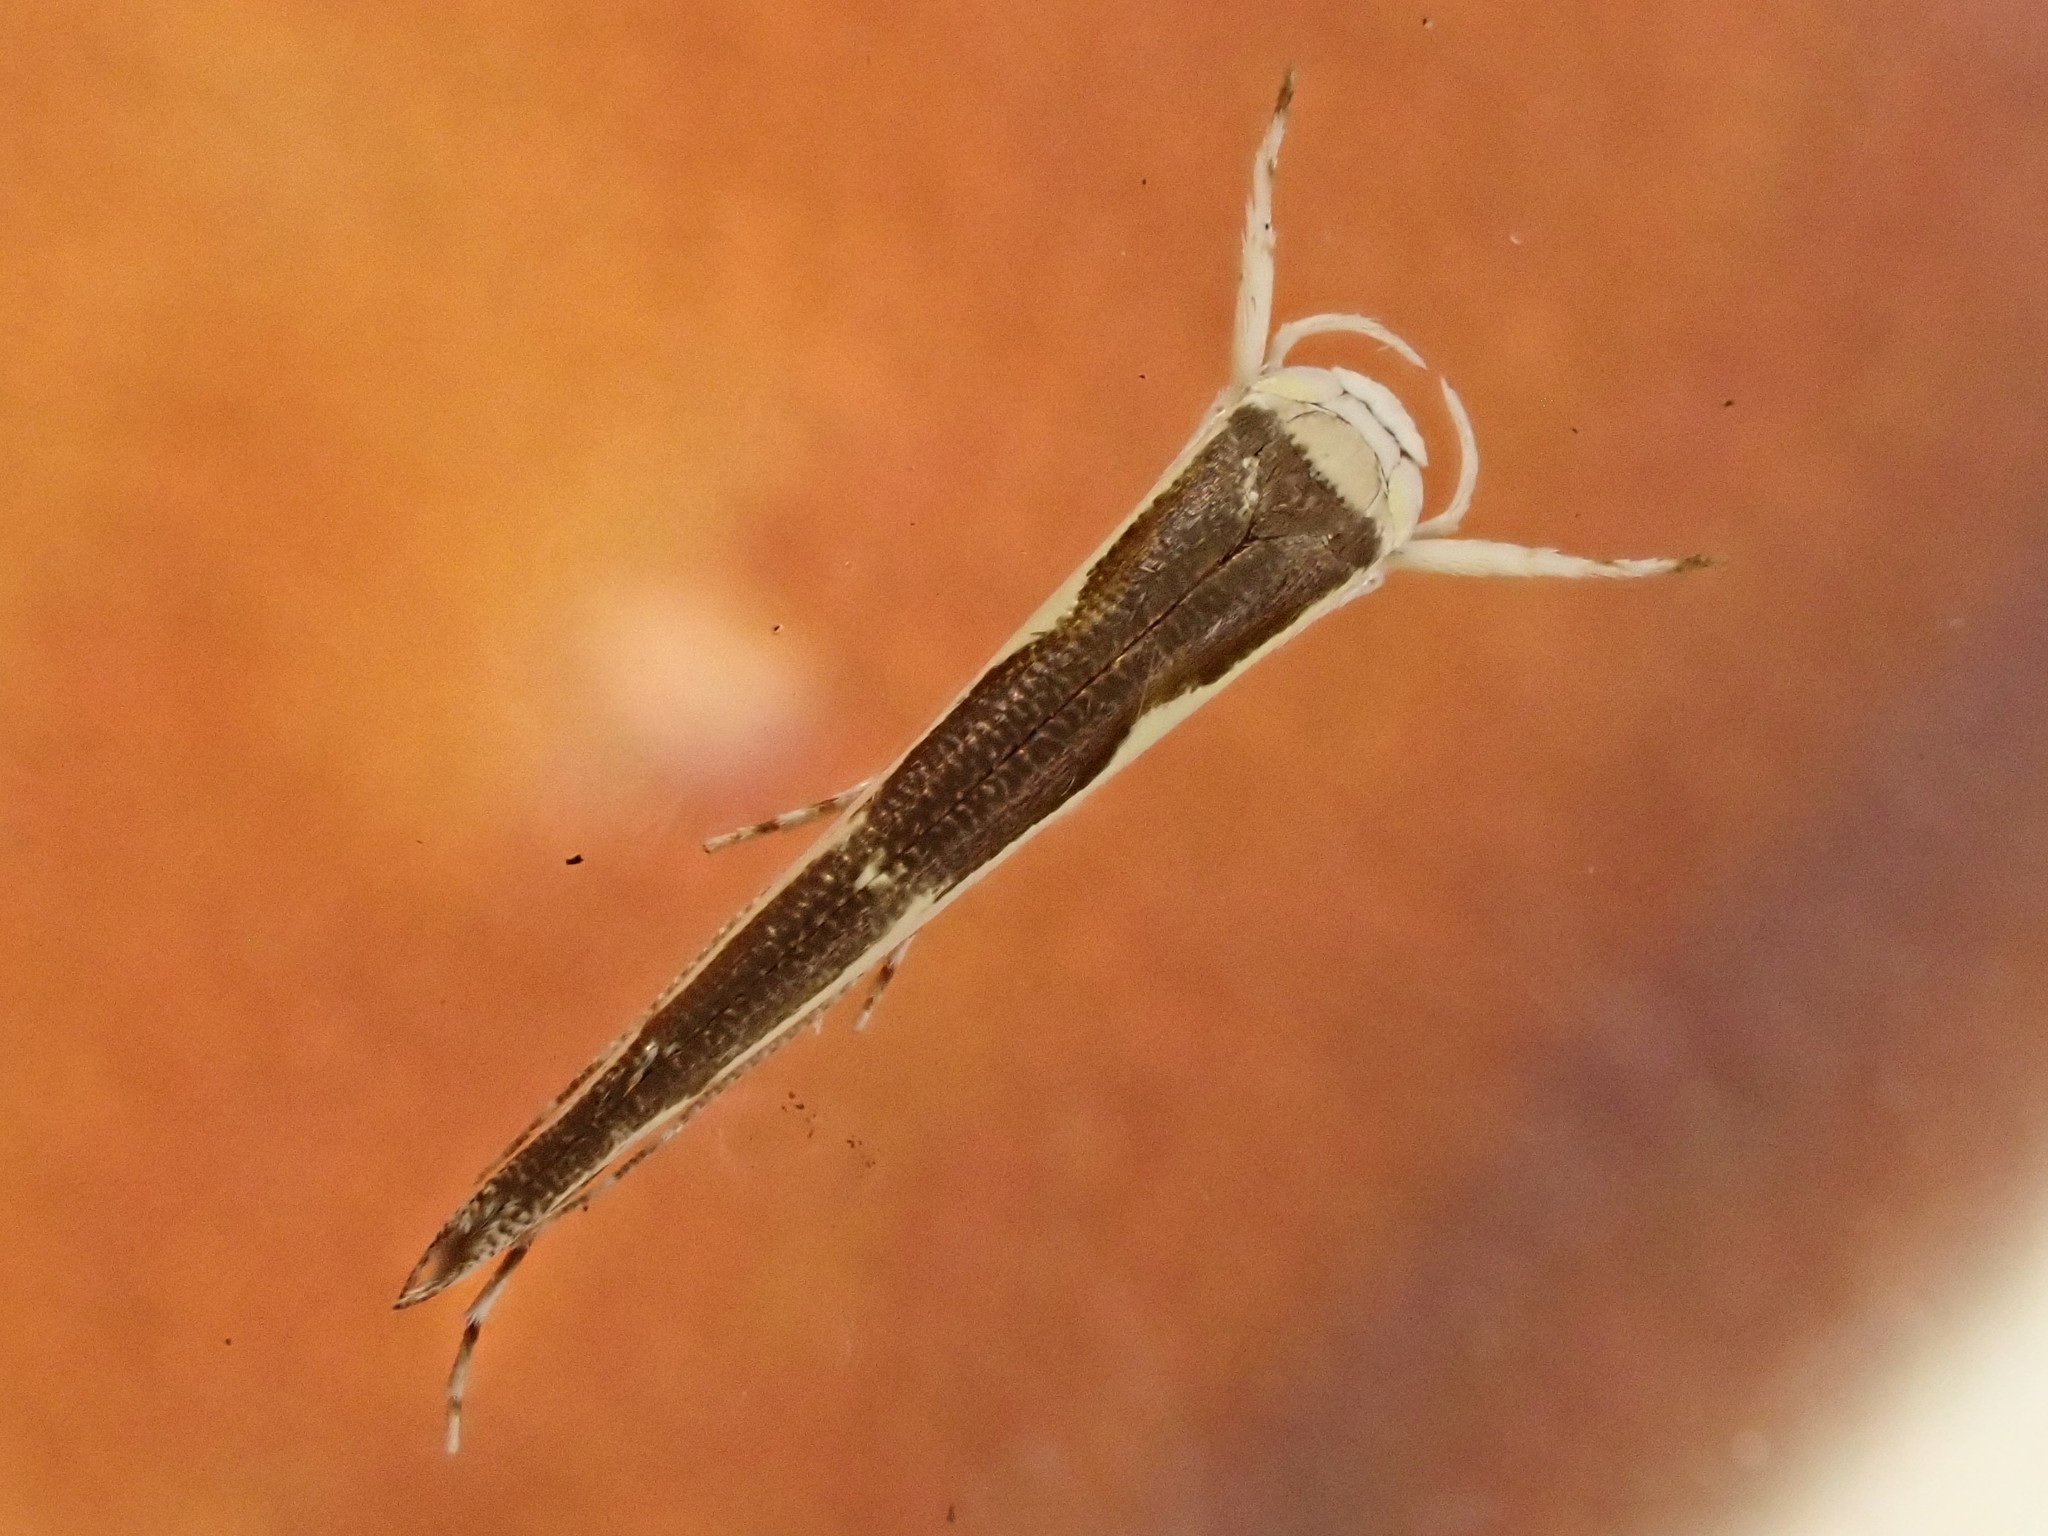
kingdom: Animalia
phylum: Arthropoda
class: Insecta
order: Lepidoptera
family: Roeslerstammiidae
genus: Vanicela
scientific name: Vanicela disjunctella
